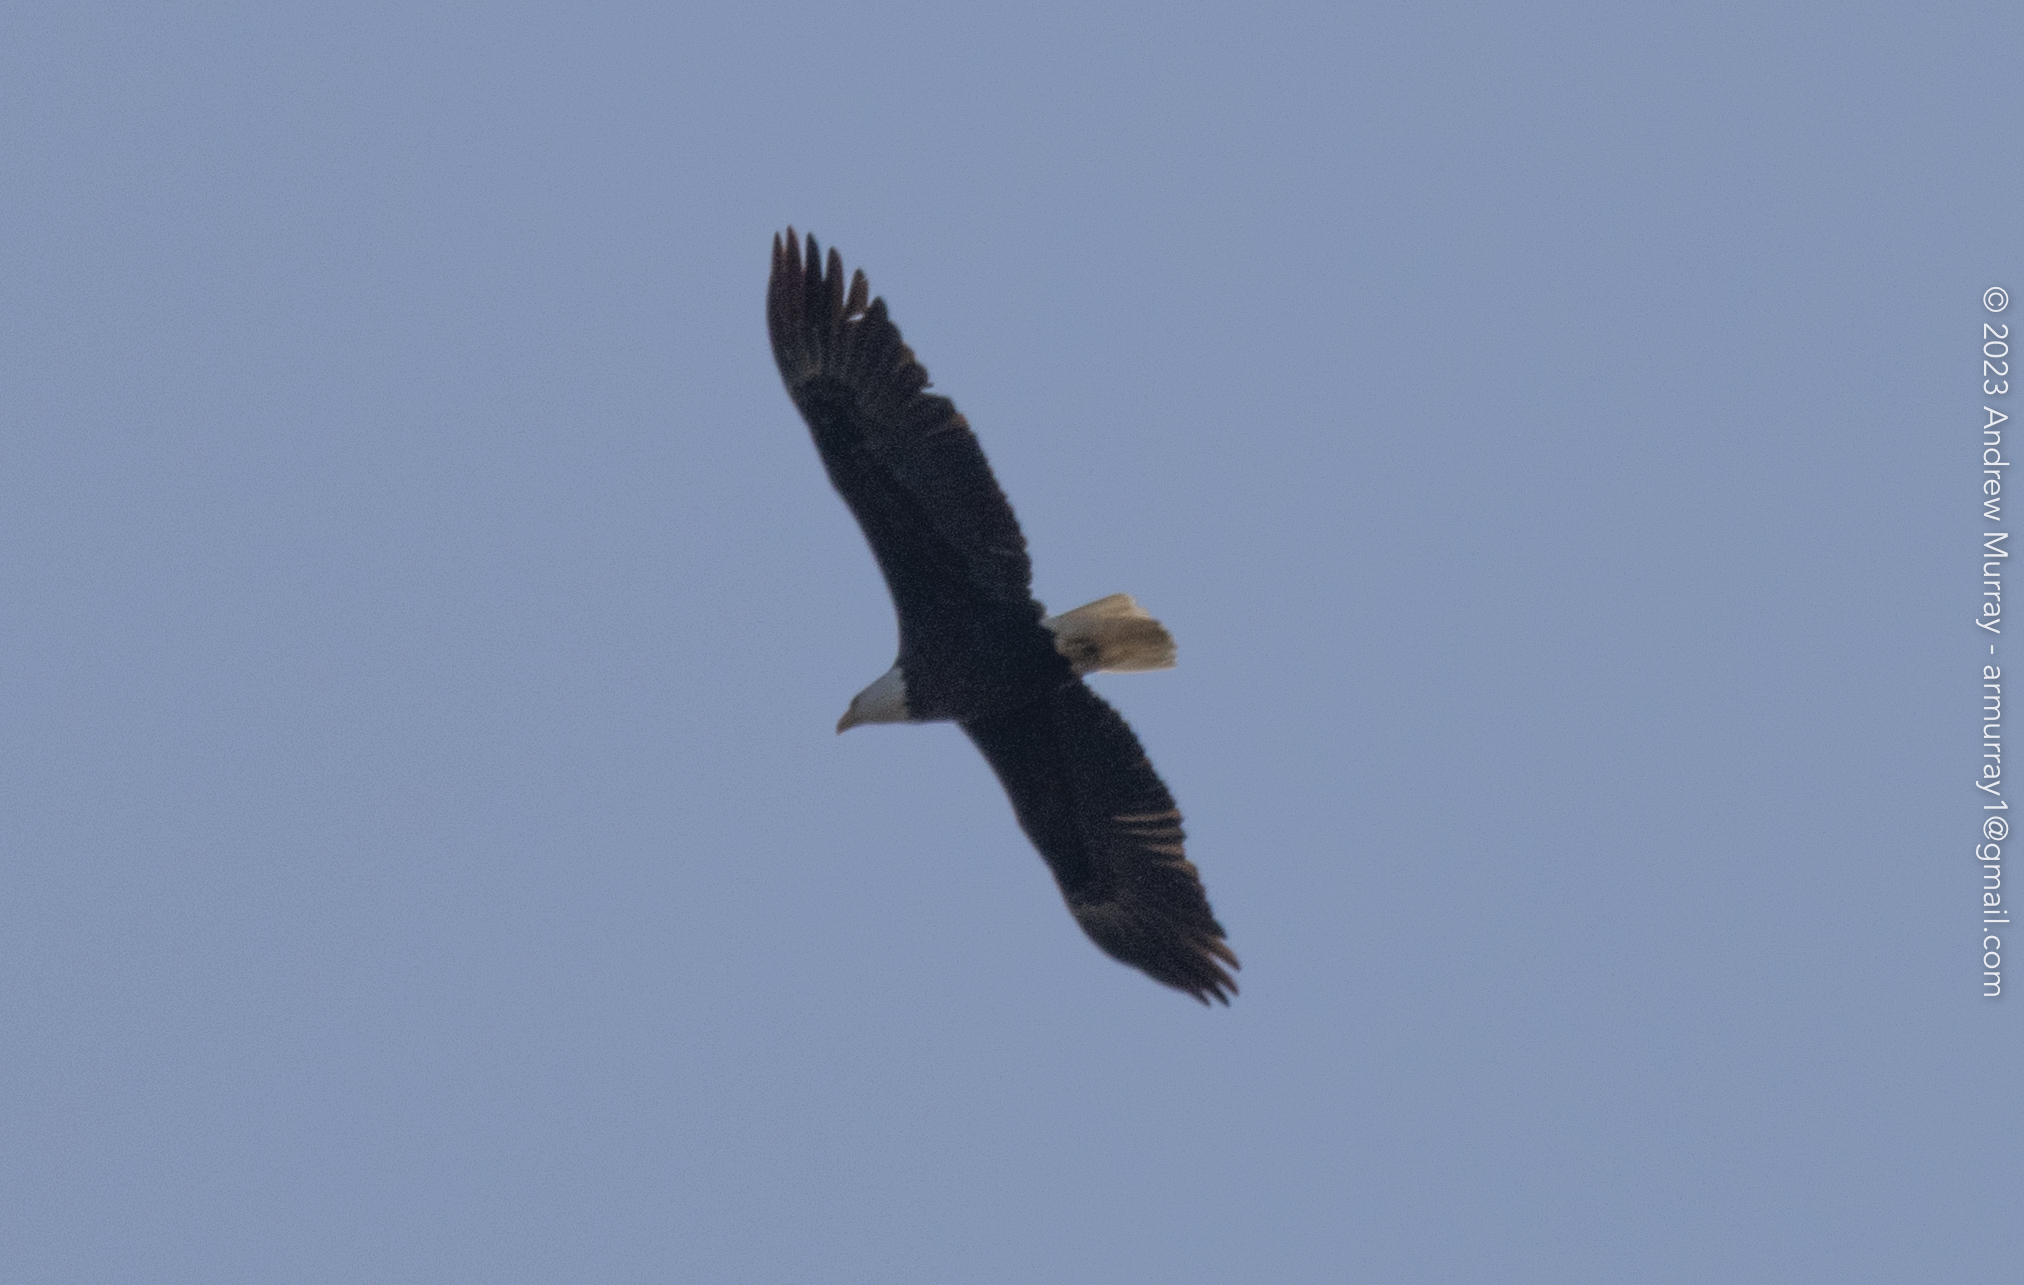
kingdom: Animalia
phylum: Chordata
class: Aves
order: Accipitriformes
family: Accipitridae
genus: Haliaeetus
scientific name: Haliaeetus leucocephalus
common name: Bald eagle
